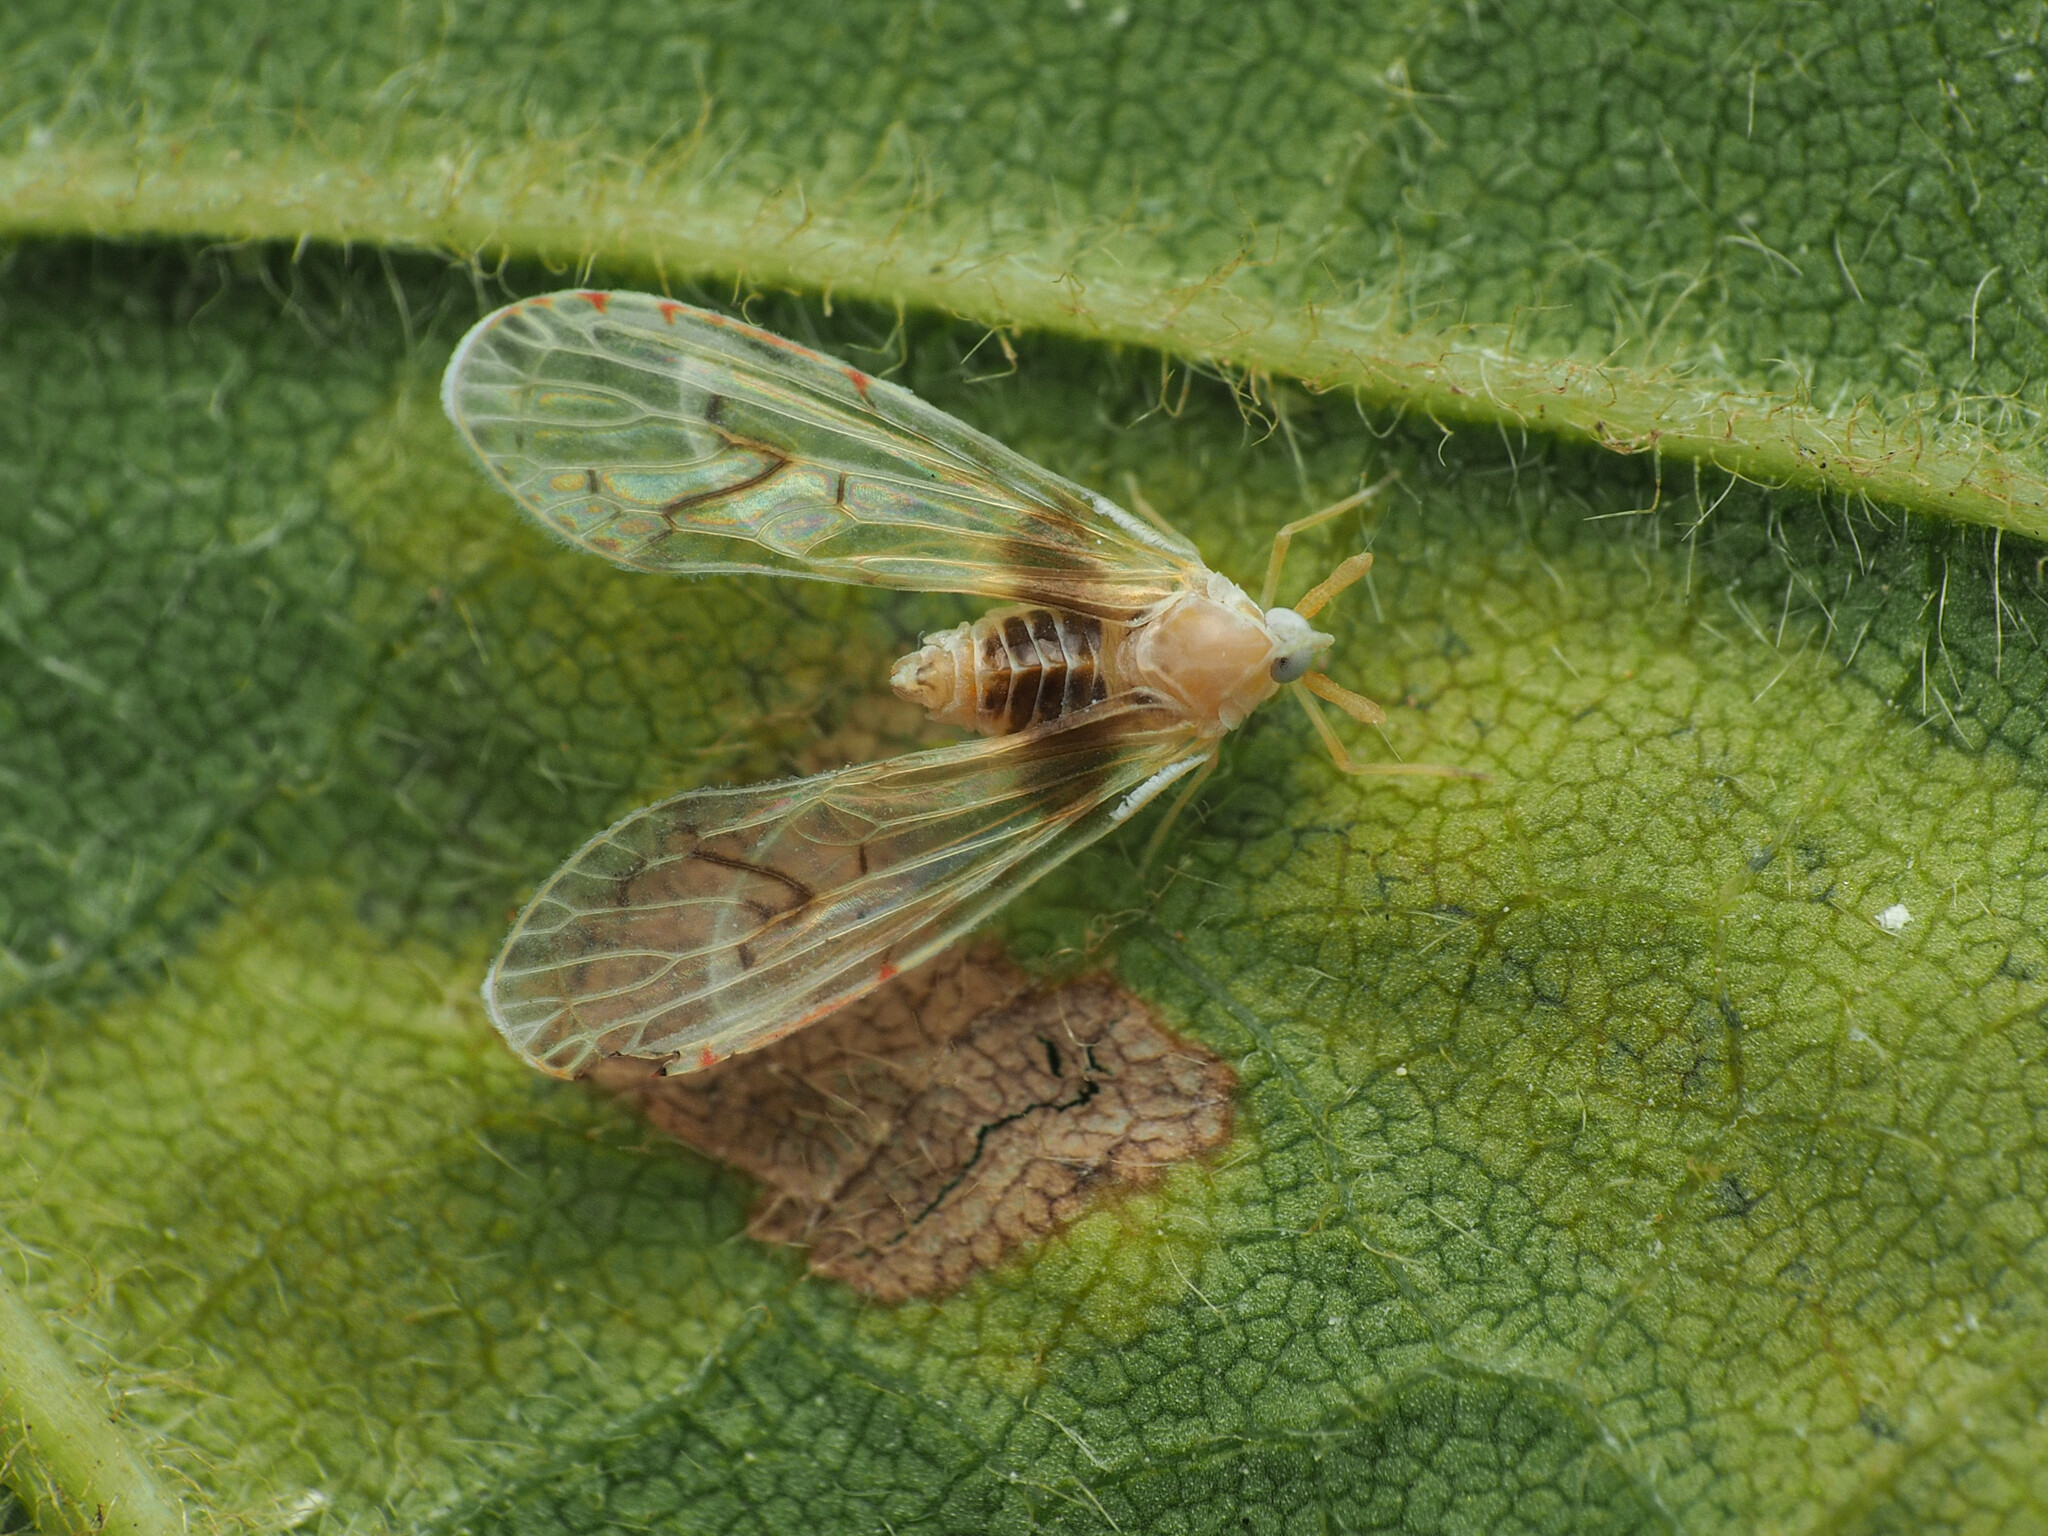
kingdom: Animalia
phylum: Arthropoda
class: Insecta
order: Hemiptera
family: Derbidae
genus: Anotia
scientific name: Anotia burnetii
